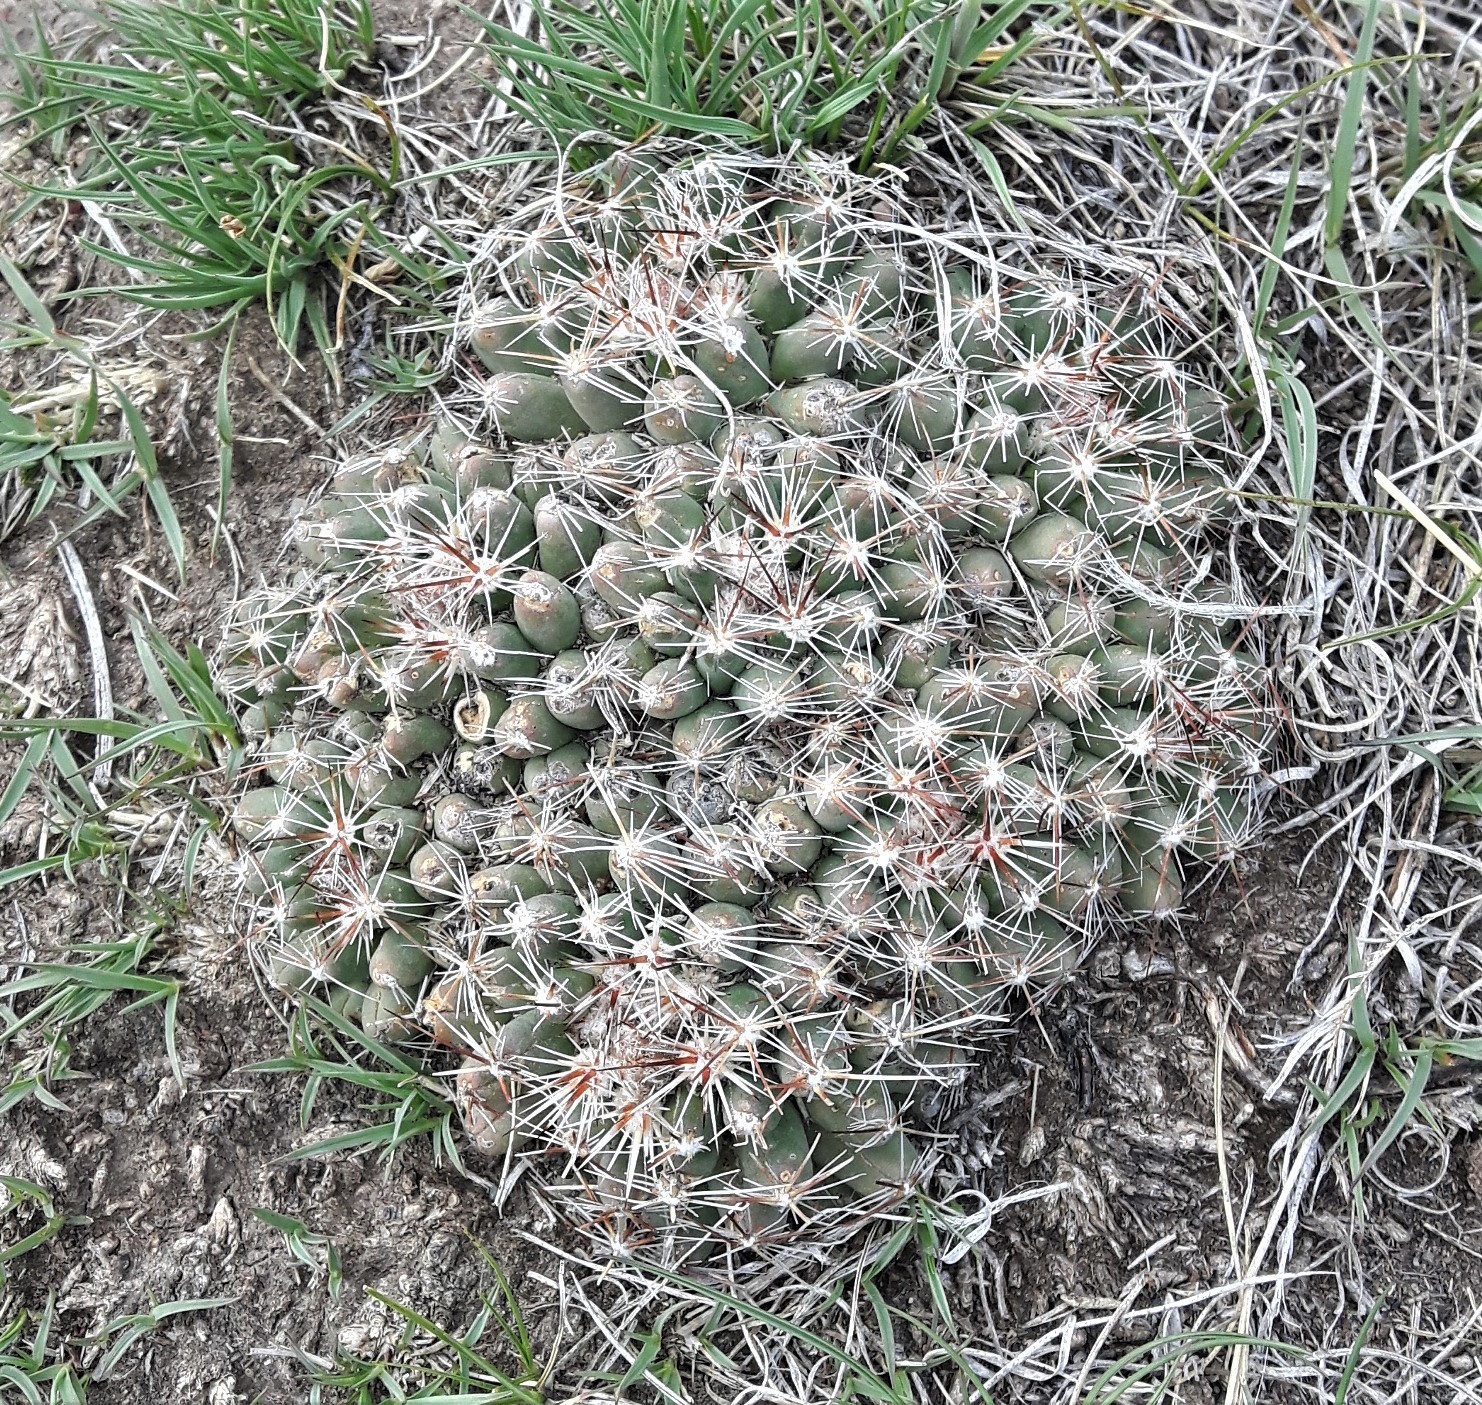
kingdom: Plantae
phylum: Tracheophyta
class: Magnoliopsida
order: Caryophyllales
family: Cactaceae
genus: Pelecyphora
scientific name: Pelecyphora vivipara
